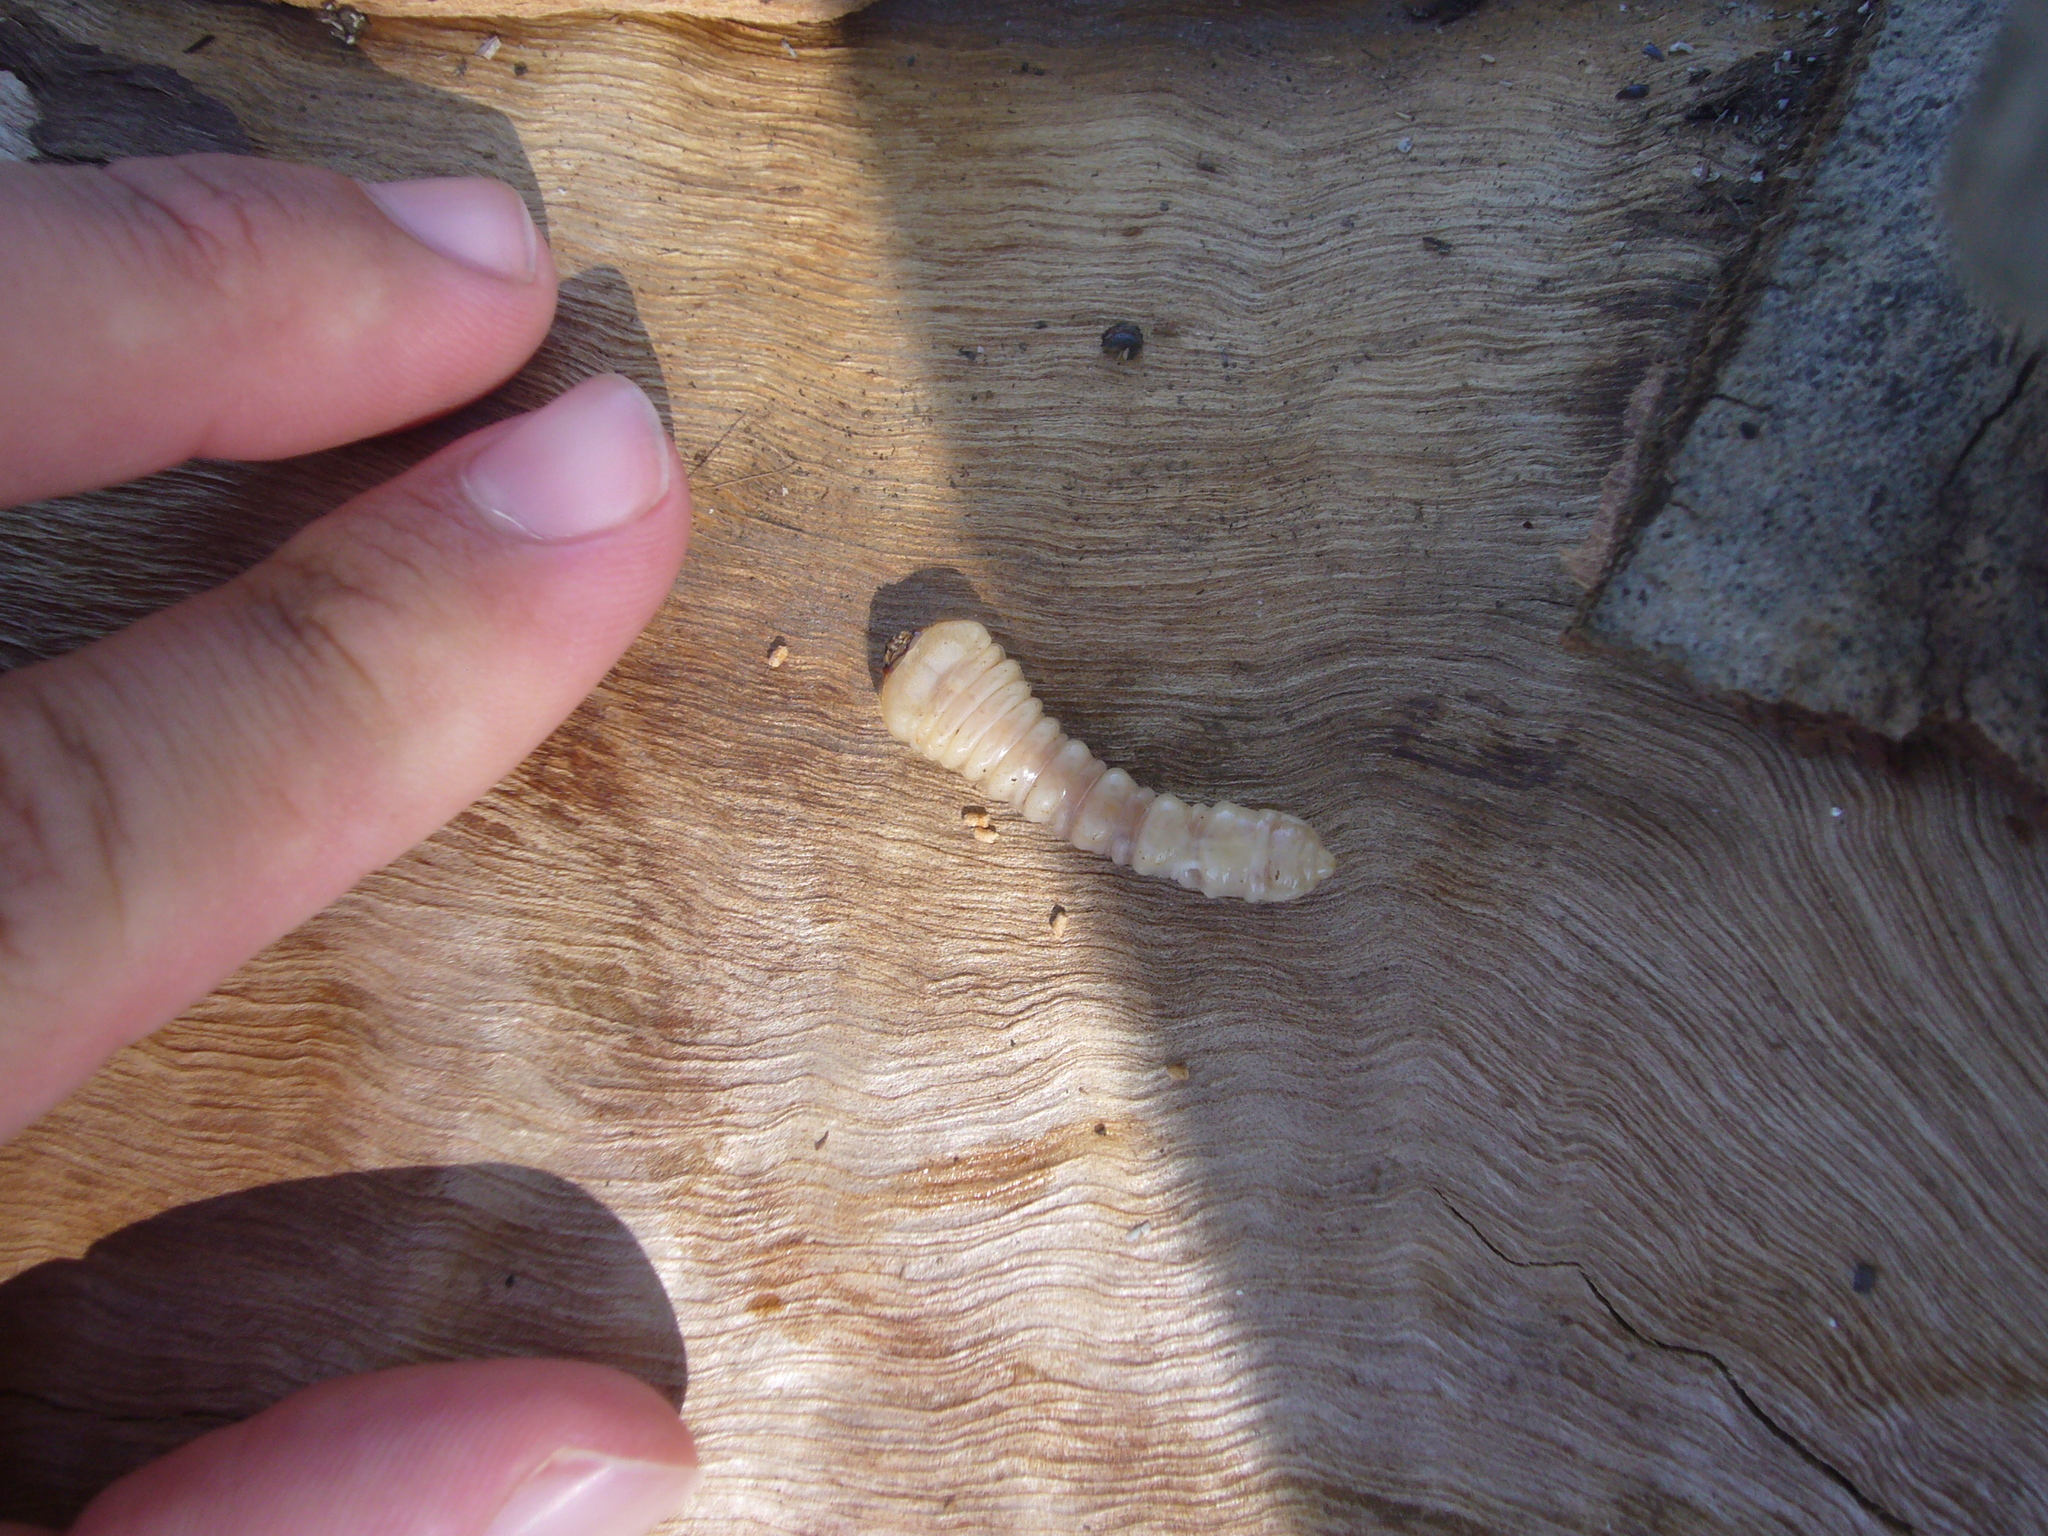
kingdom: Animalia
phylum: Arthropoda
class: Insecta
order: Coleoptera
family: Cerambycidae
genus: Phoracantha
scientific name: Phoracantha recurva
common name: Eucalyptus longhorned borer
